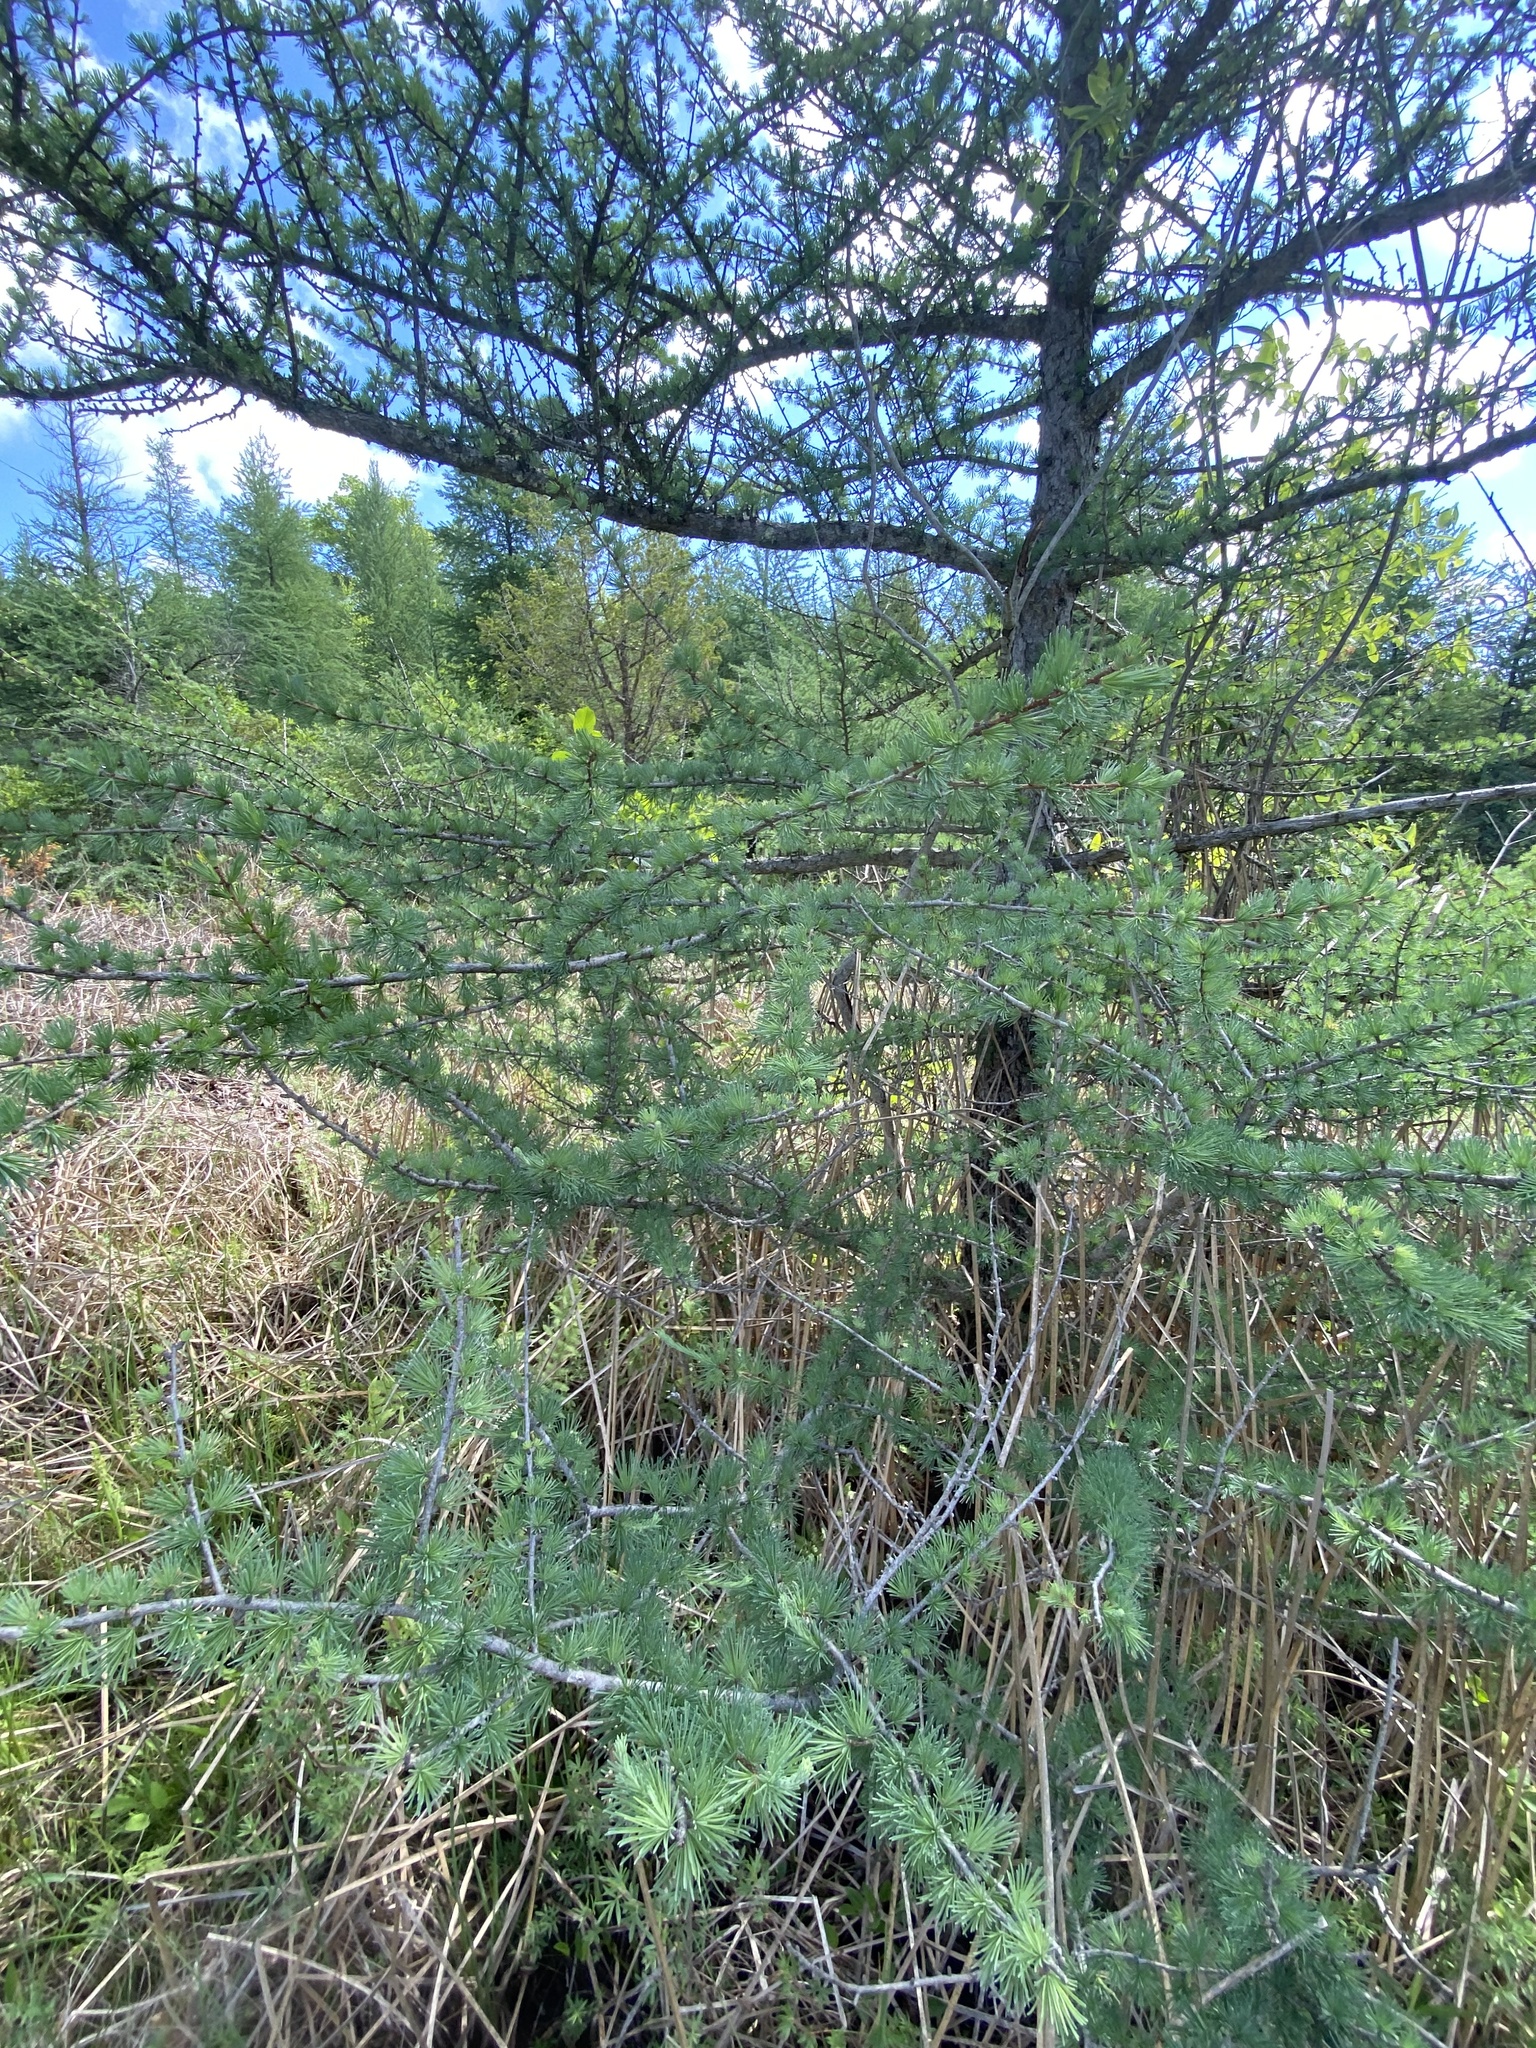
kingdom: Plantae
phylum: Tracheophyta
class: Pinopsida
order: Pinales
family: Pinaceae
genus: Larix
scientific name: Larix laricina
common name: American larch
